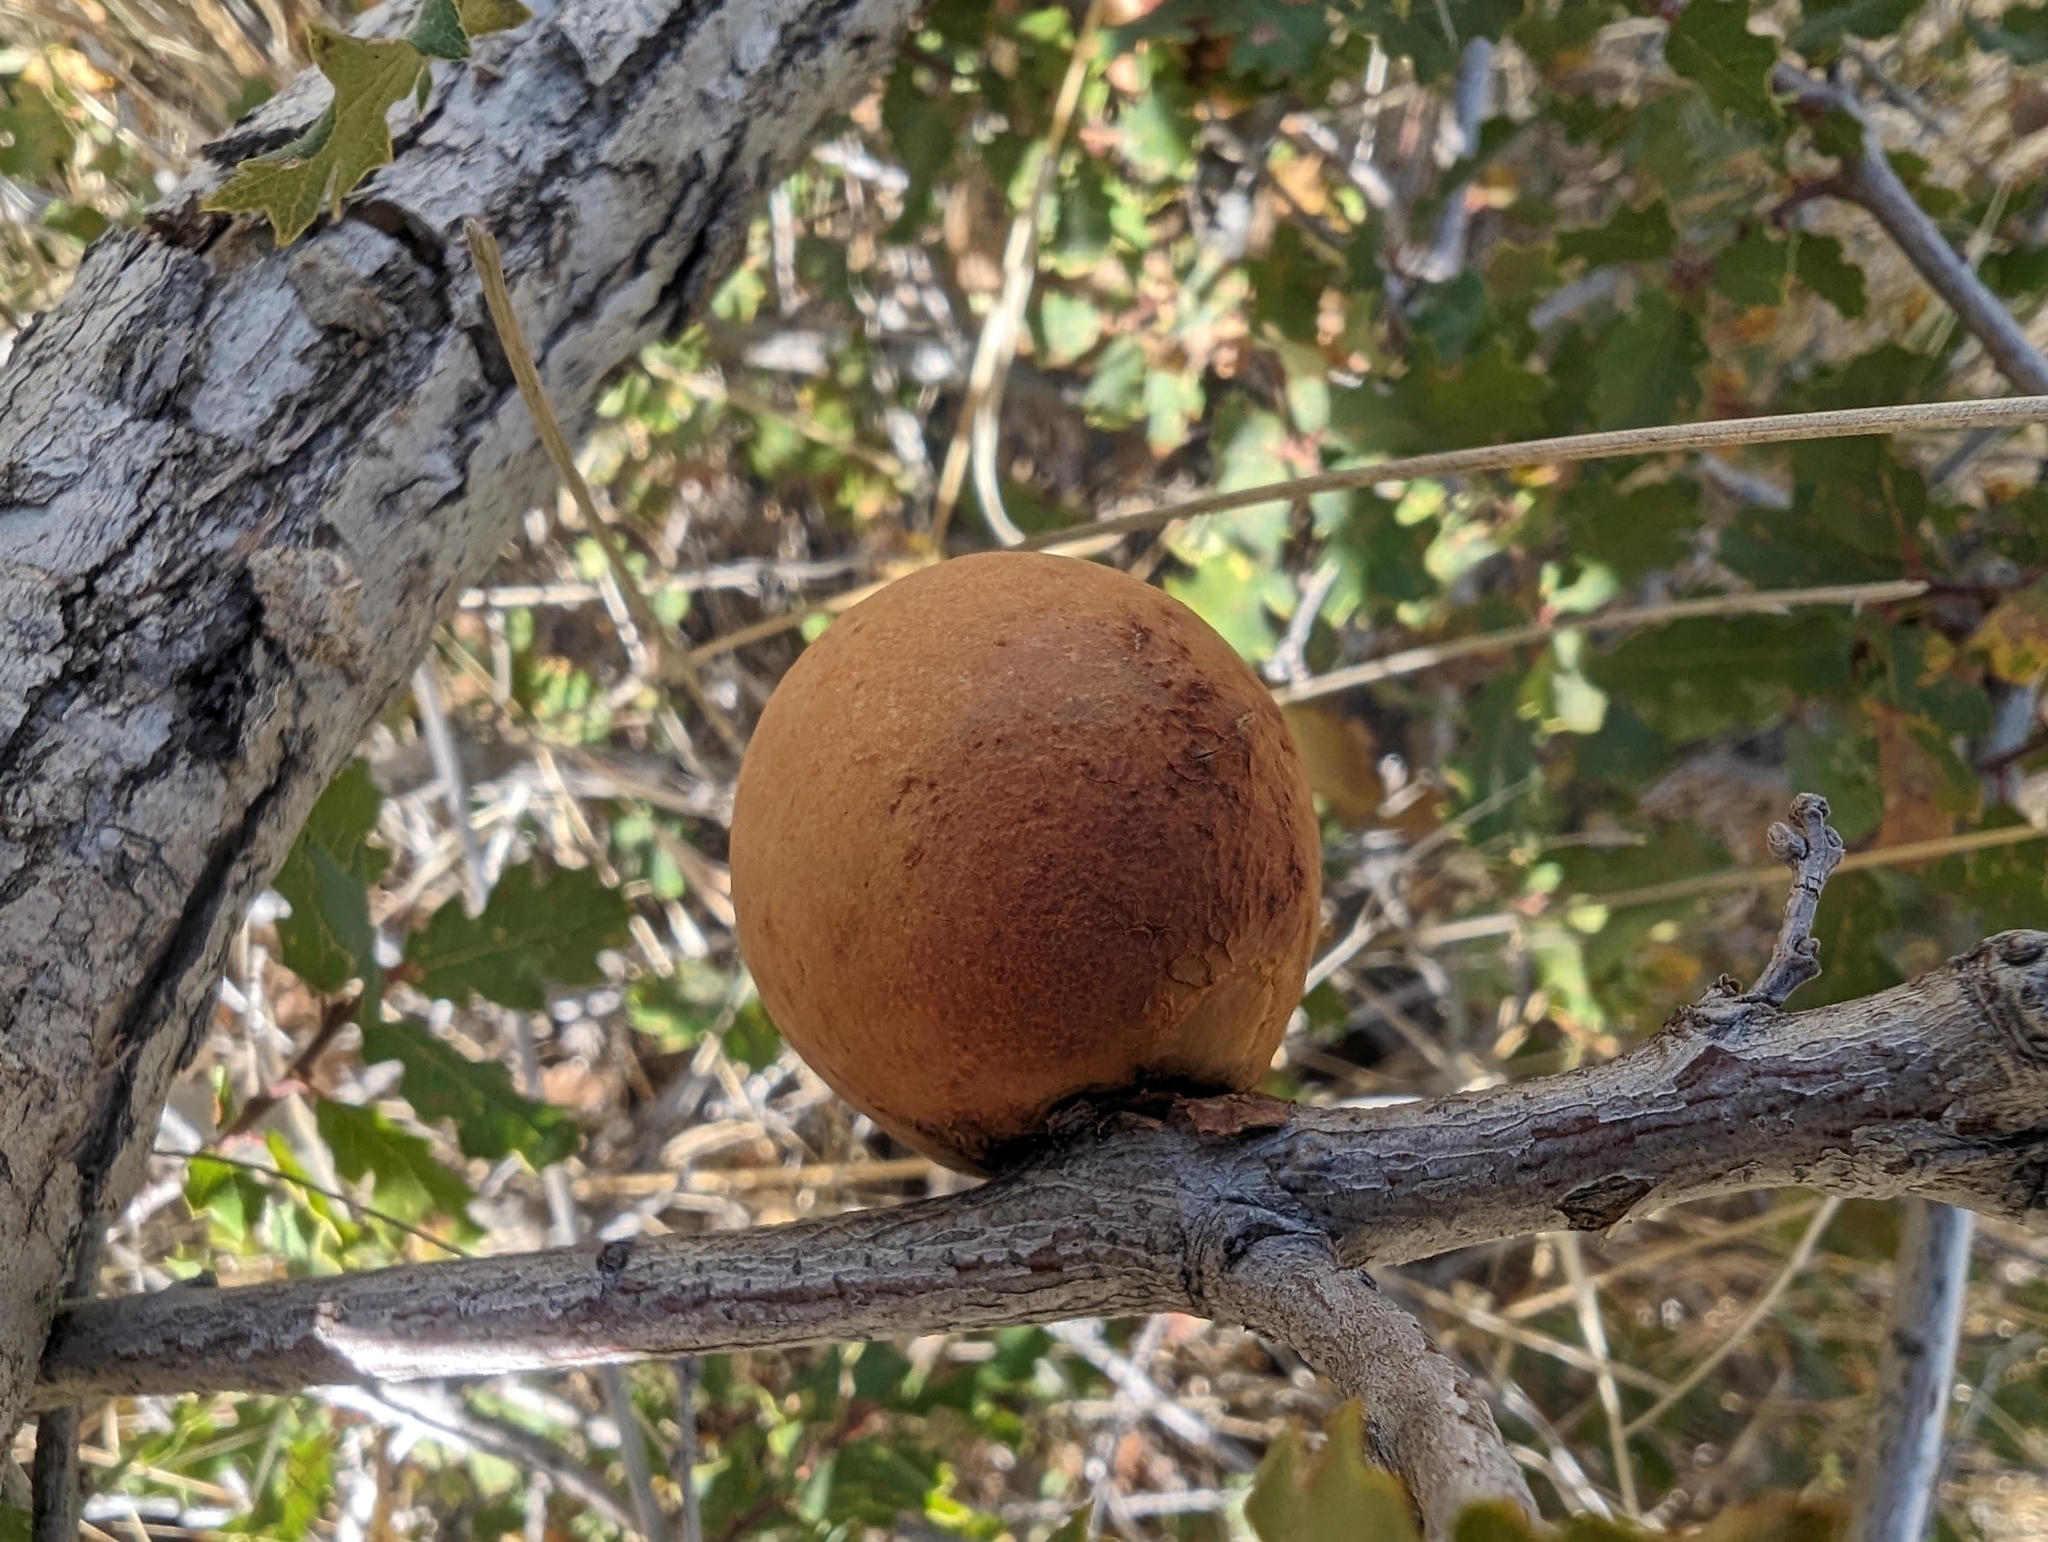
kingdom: Animalia
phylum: Arthropoda
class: Insecta
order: Hymenoptera
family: Cynipidae
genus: Andricus
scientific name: Andricus quercuscalifornicus
